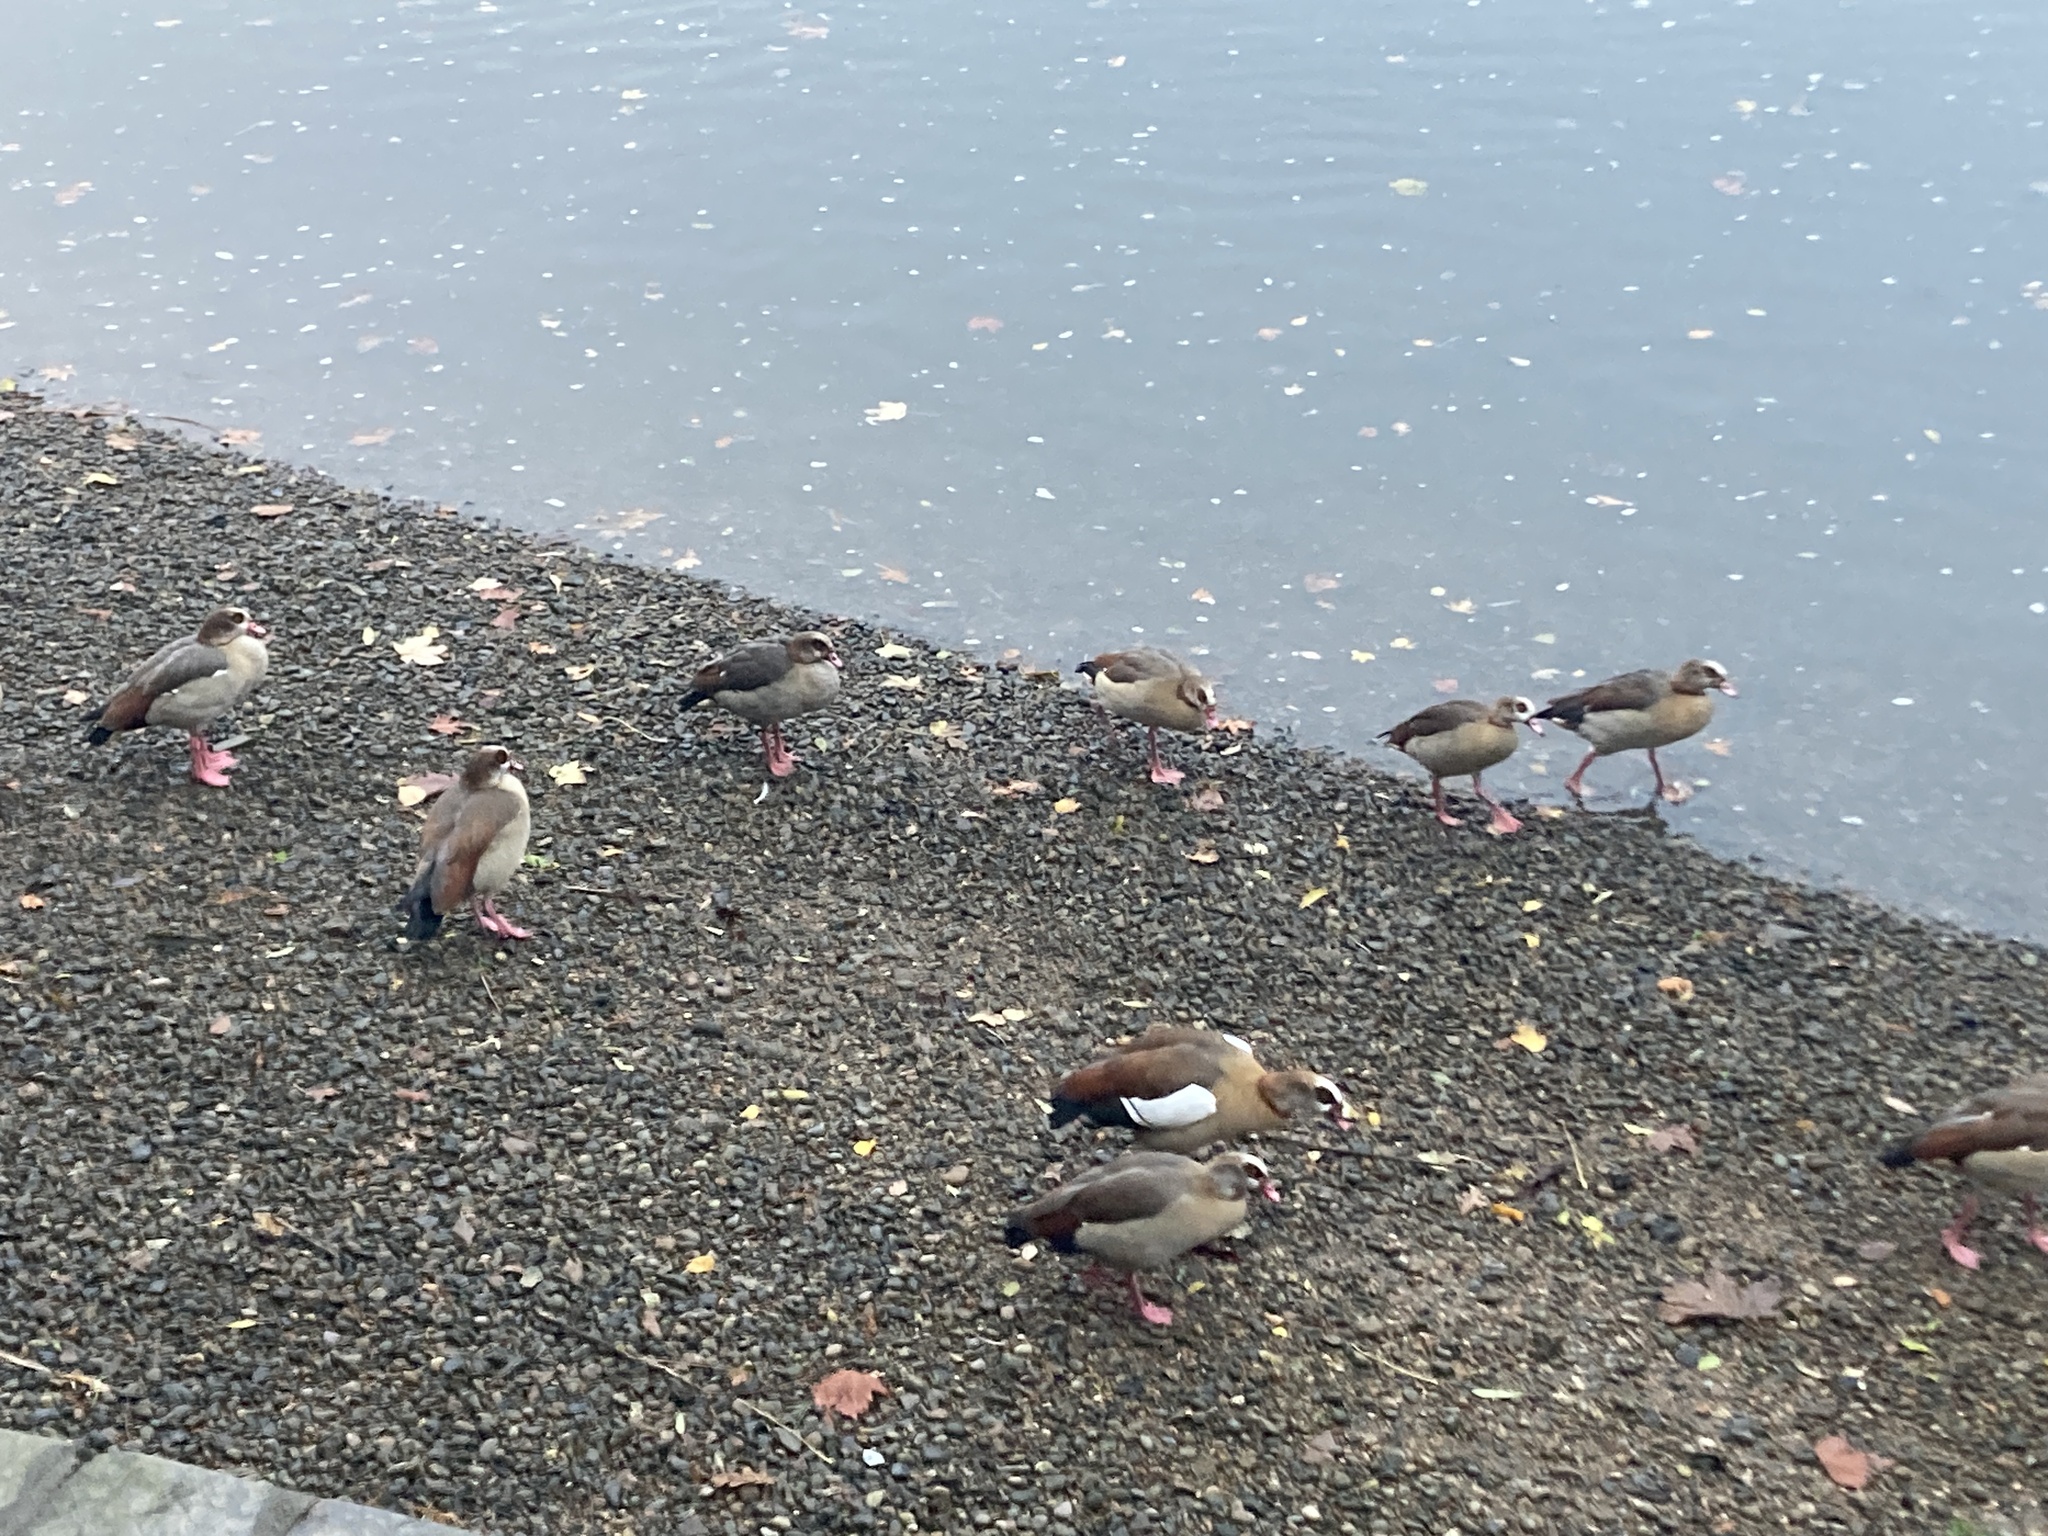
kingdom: Animalia
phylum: Chordata
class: Aves
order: Anseriformes
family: Anatidae
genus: Alopochen
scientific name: Alopochen aegyptiaca
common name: Egyptian goose
